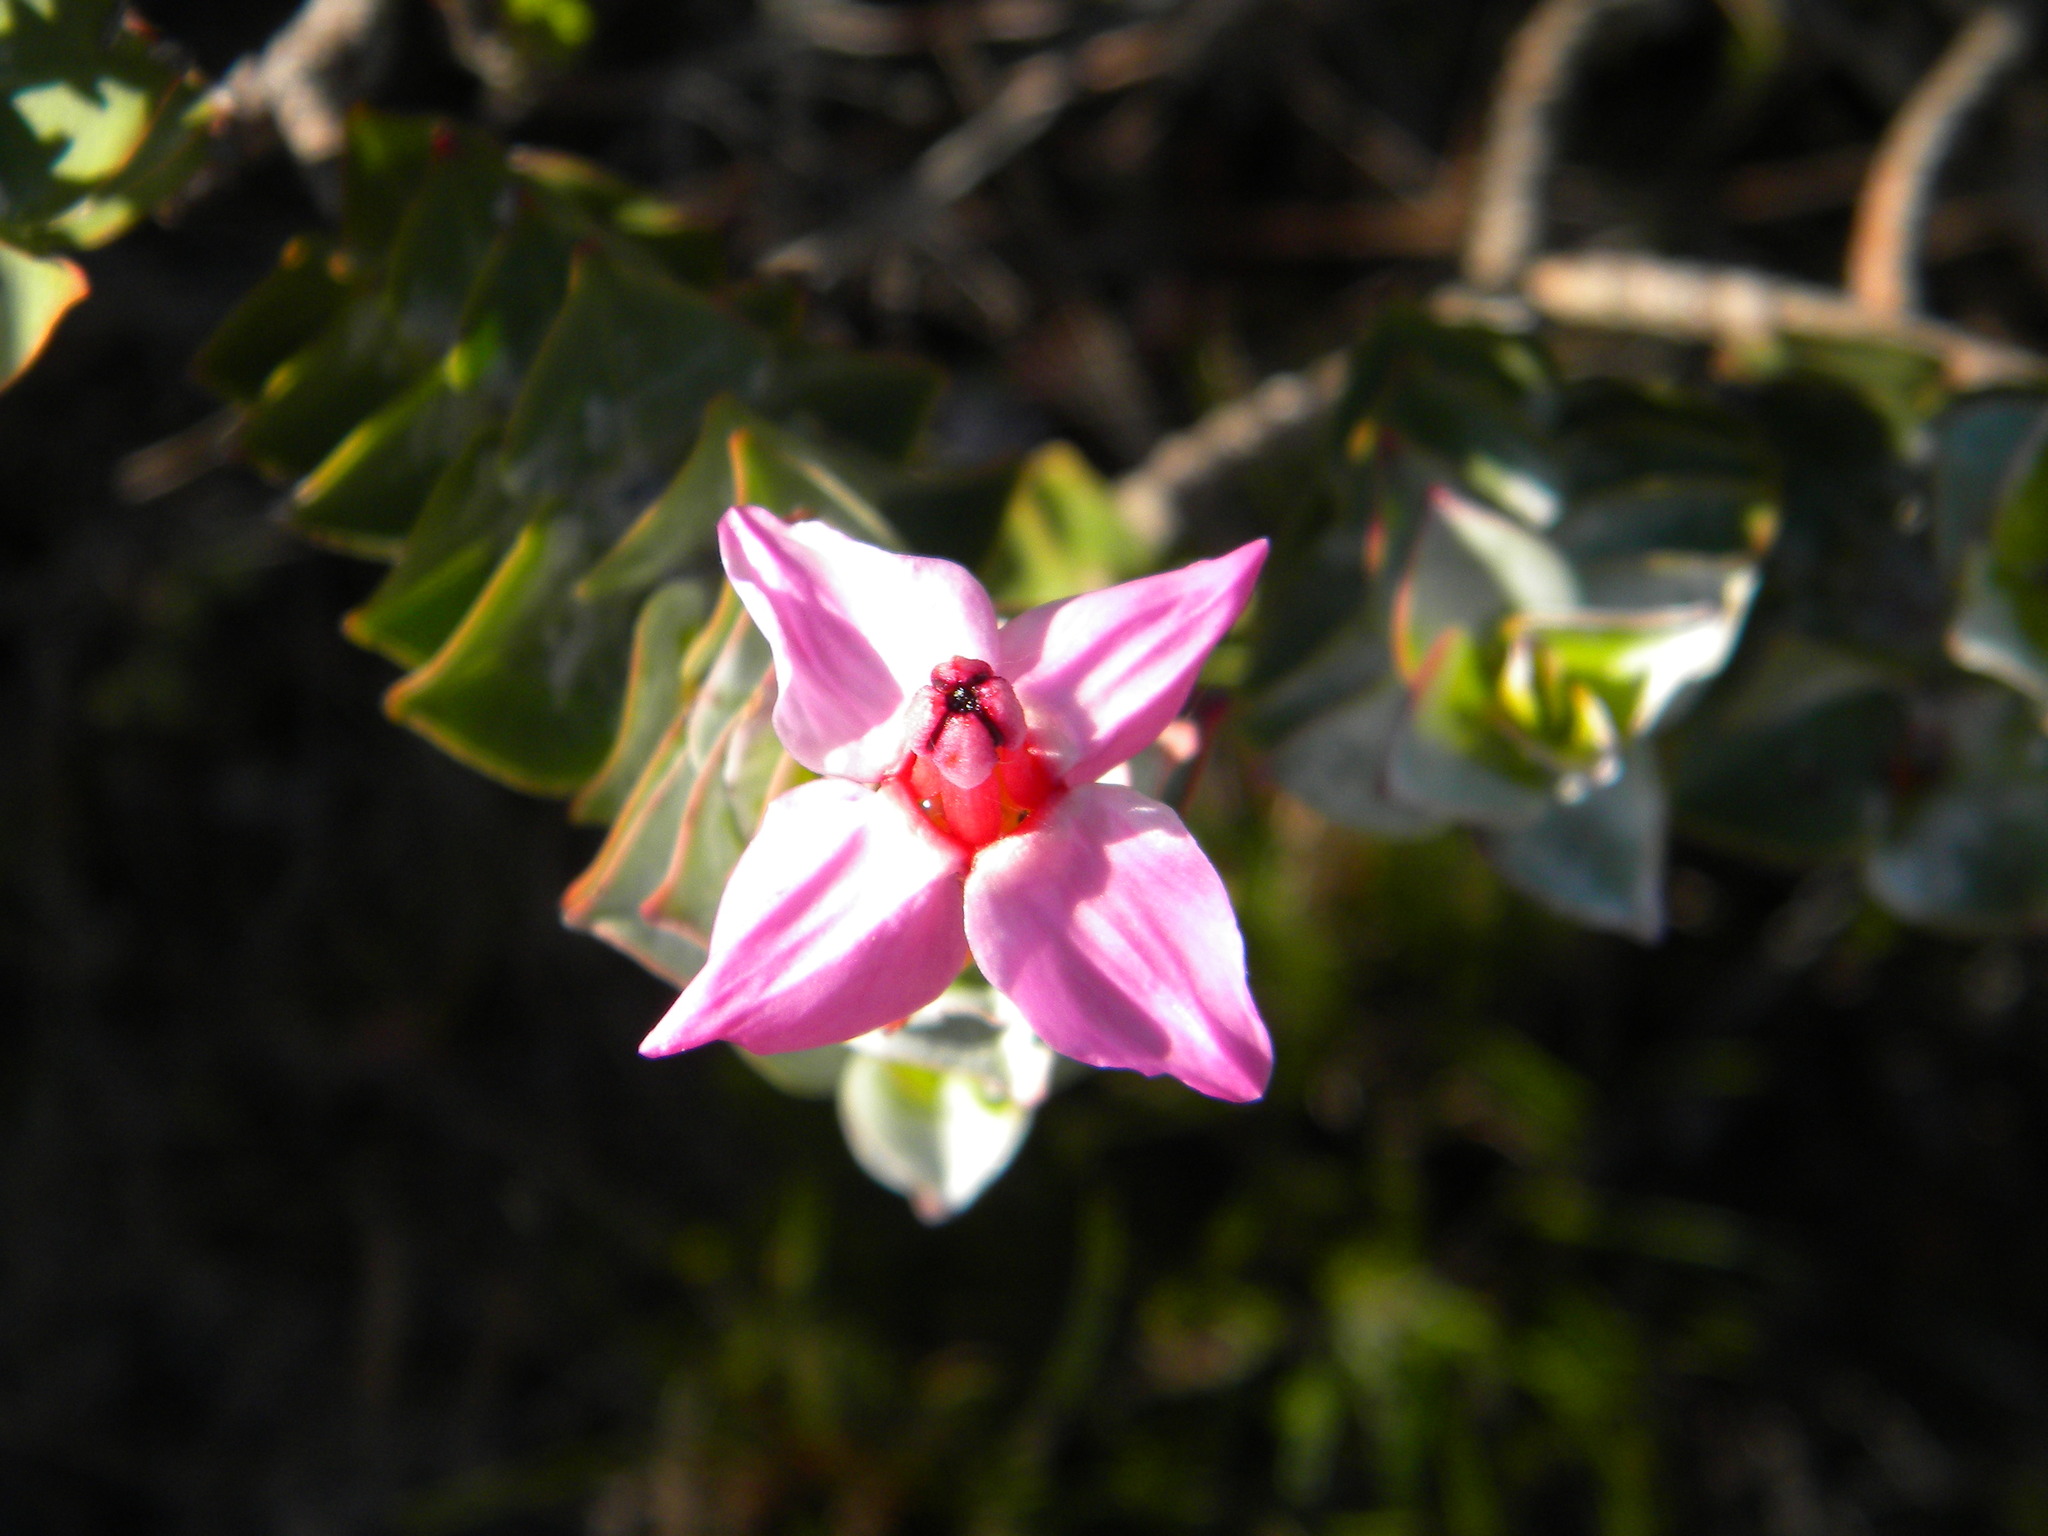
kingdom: Plantae
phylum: Tracheophyta
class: Magnoliopsida
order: Myrtales
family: Penaeaceae
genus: Saltera
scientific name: Saltera sarcocolla
